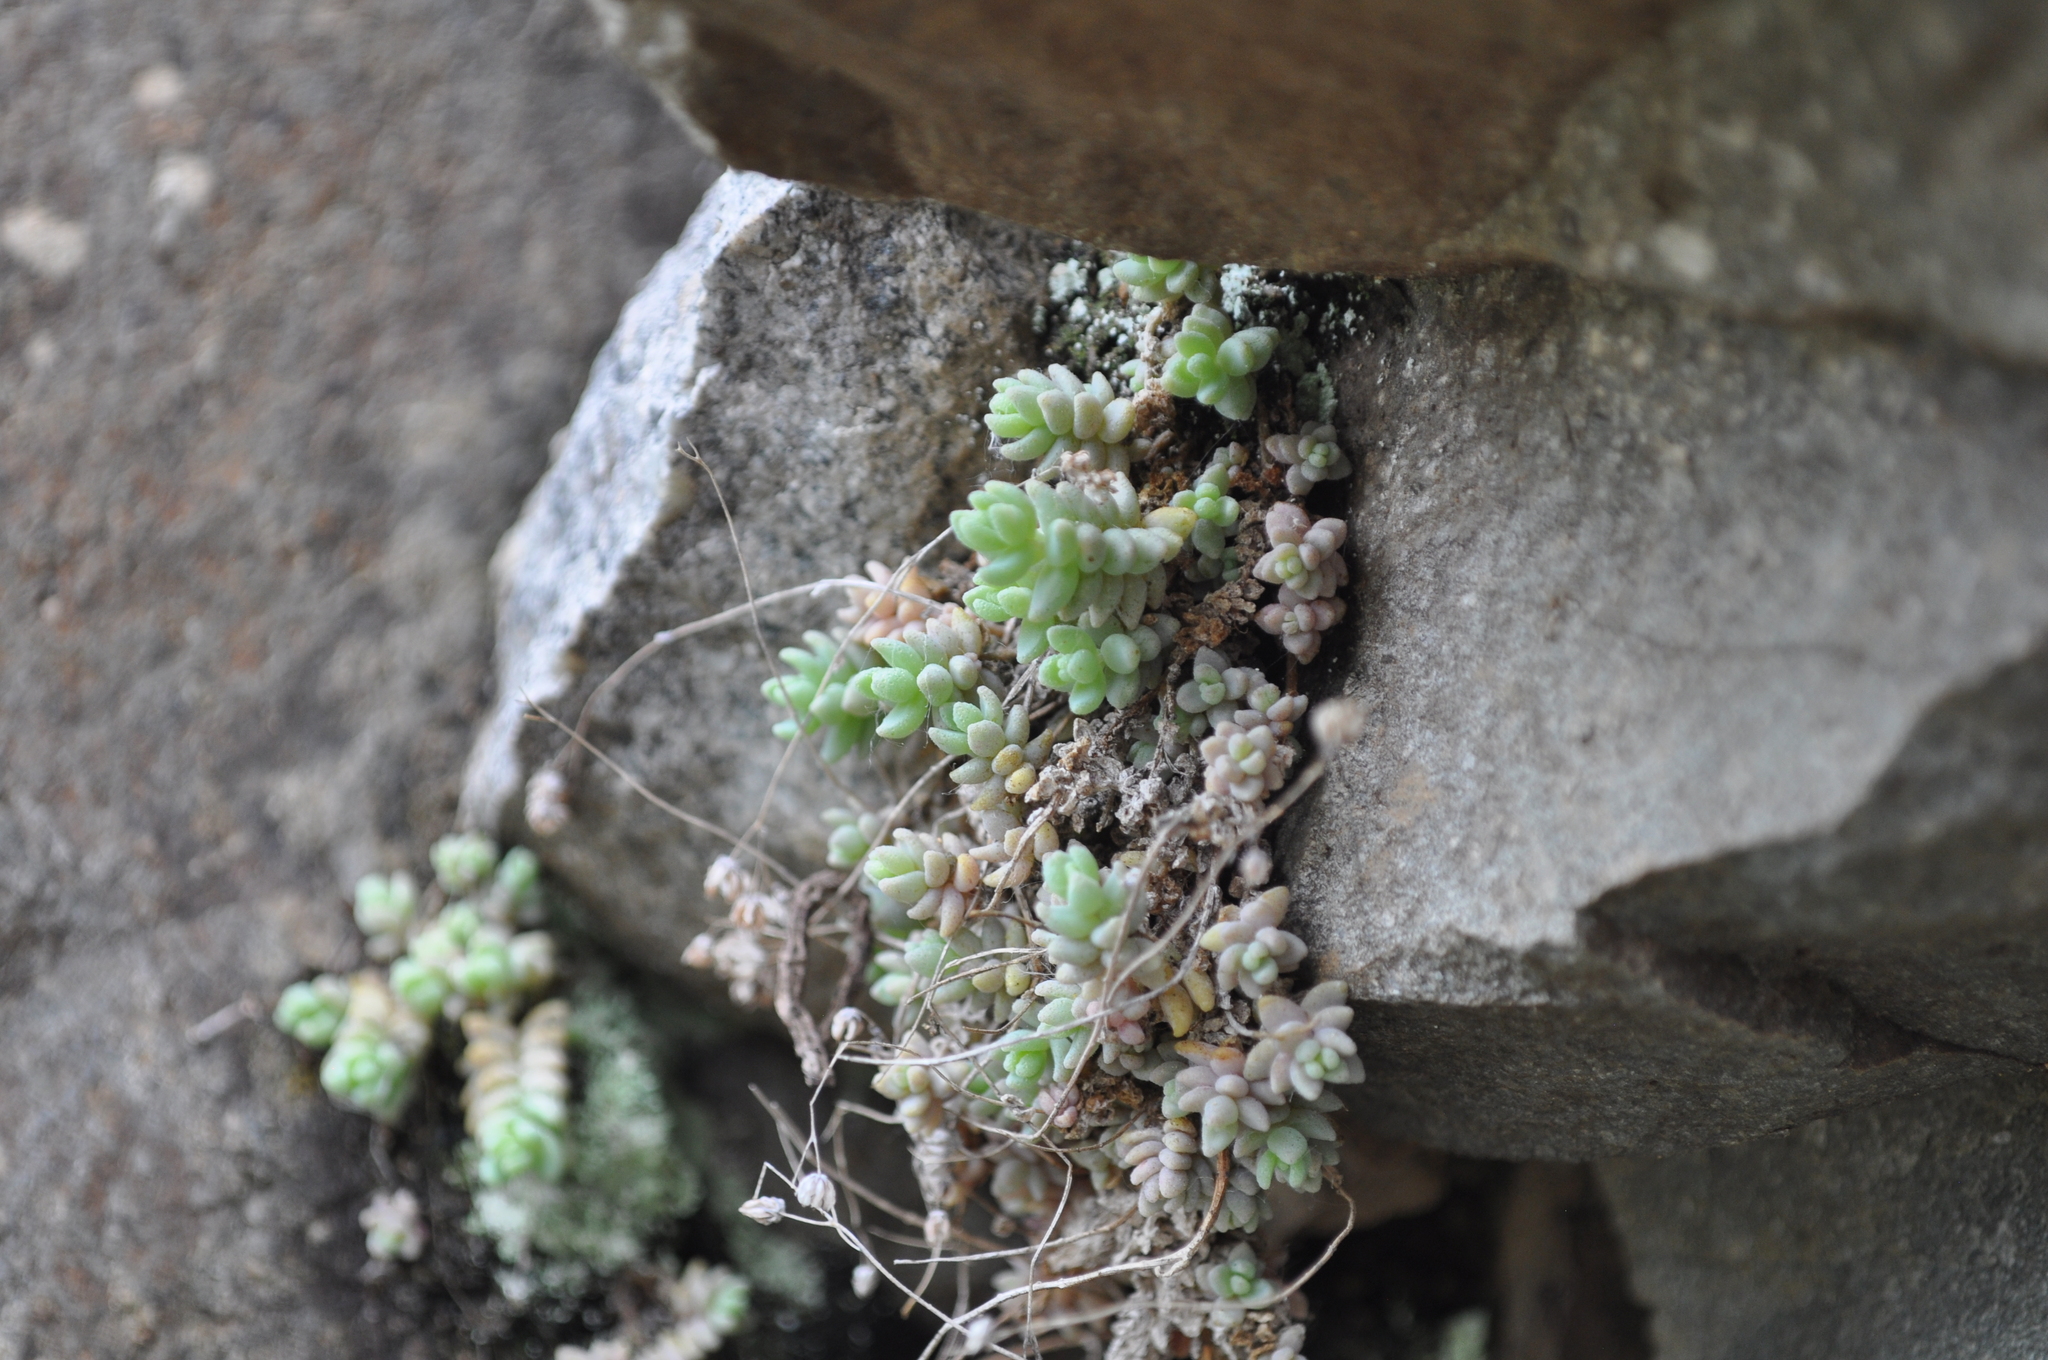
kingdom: Plantae
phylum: Tracheophyta
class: Magnoliopsida
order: Saxifragales
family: Crassulaceae
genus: Sedum
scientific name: Sedum dasyphyllum
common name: Thick-leaf stonecrop
